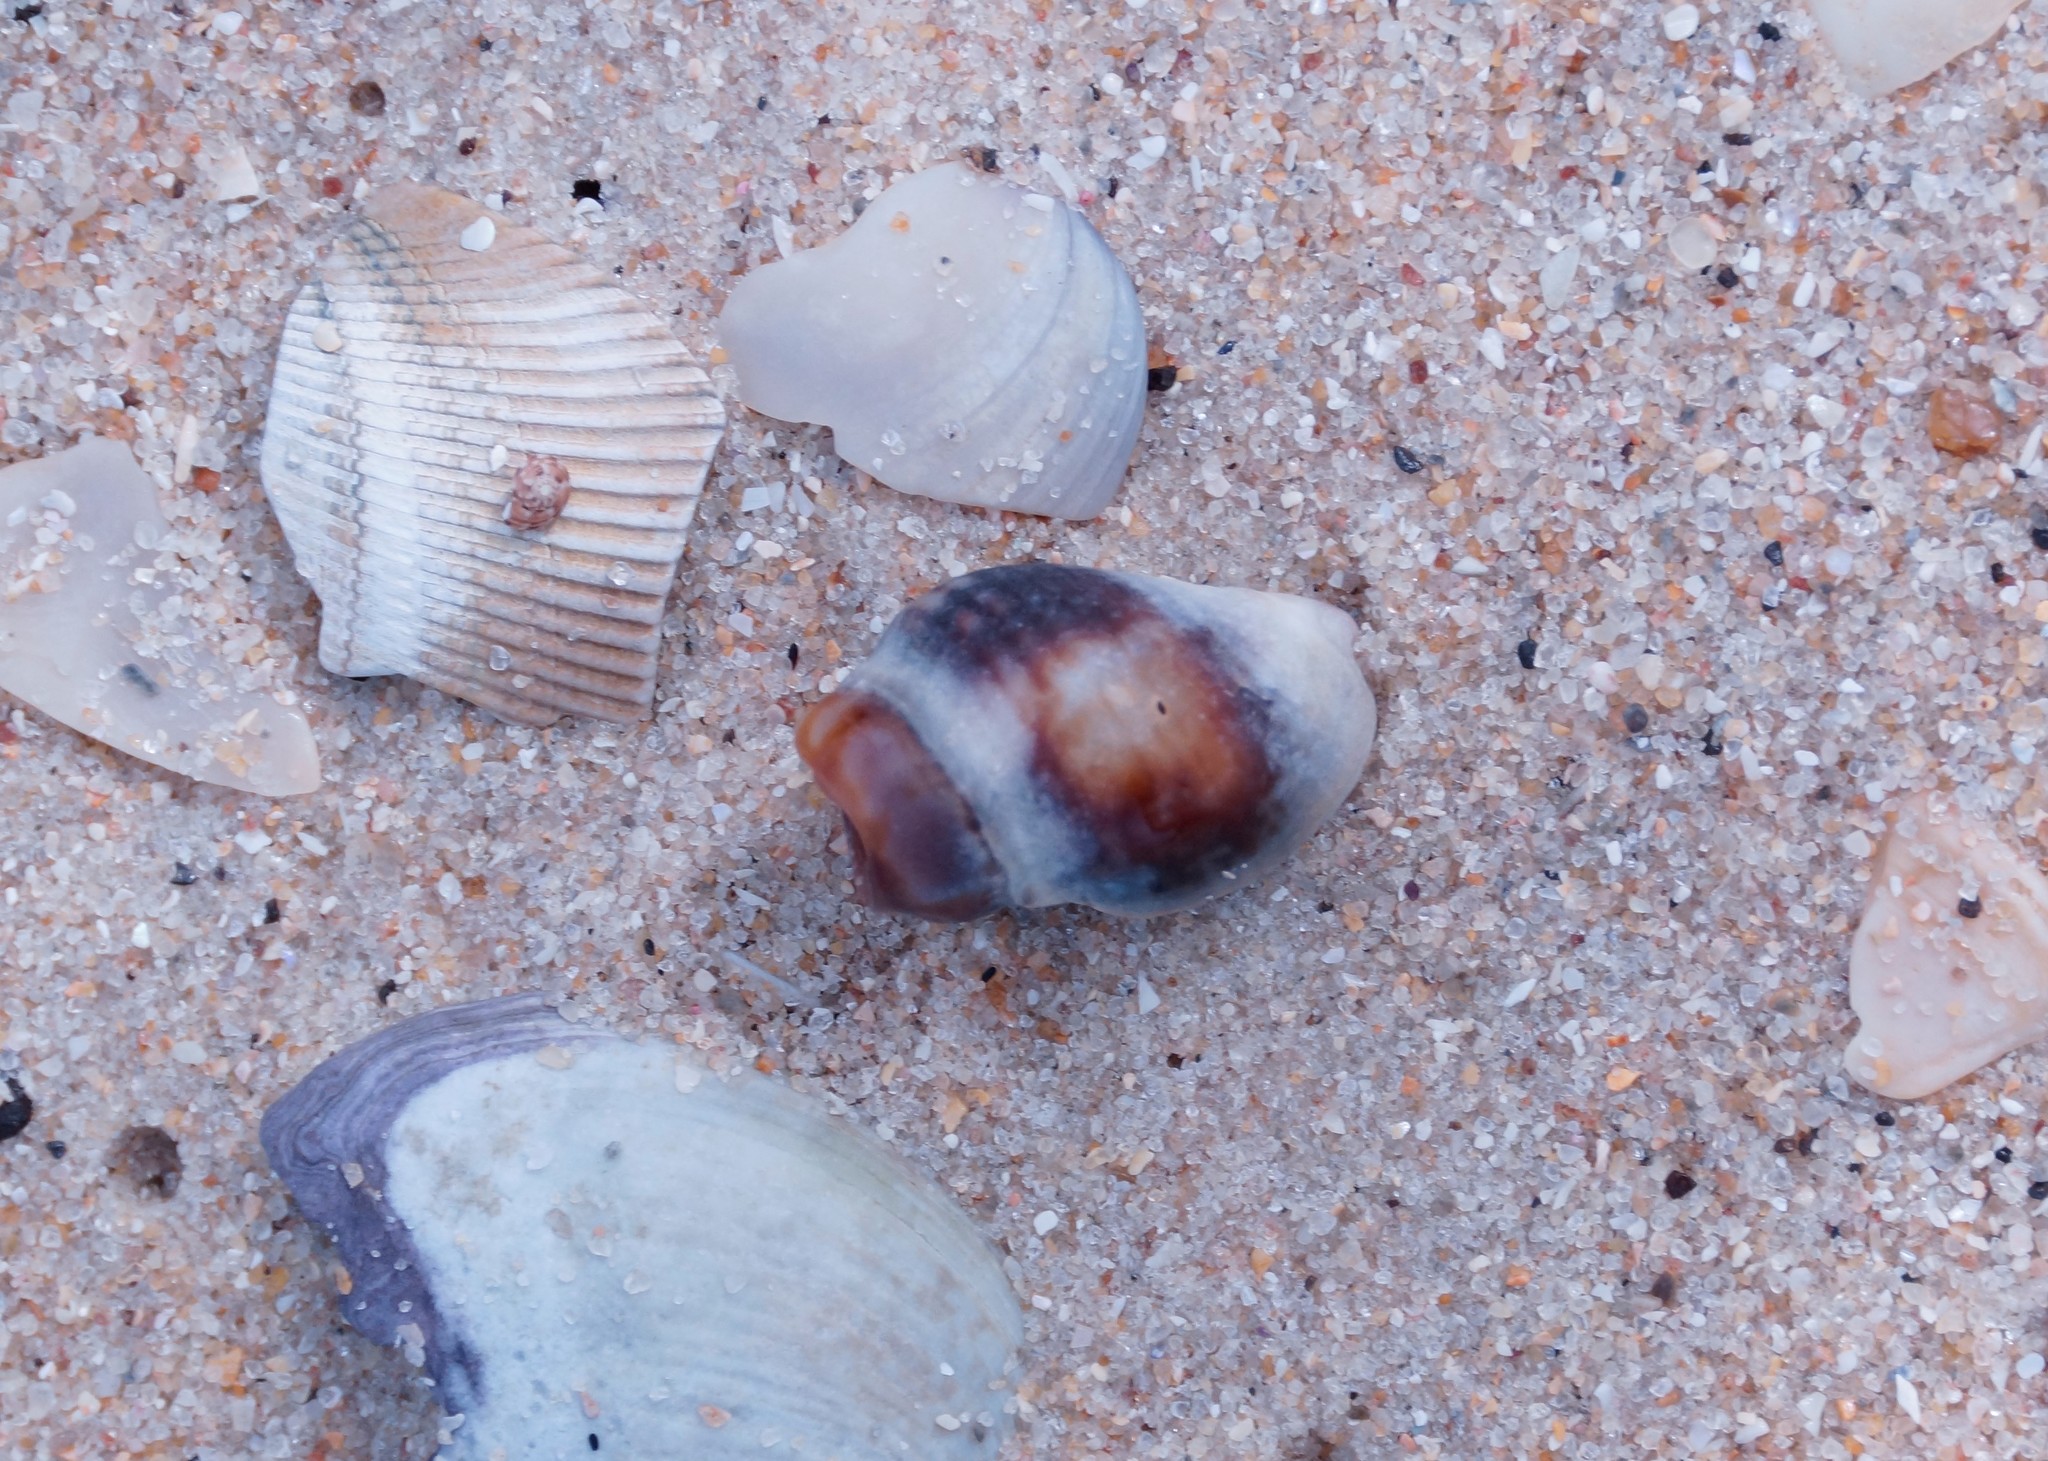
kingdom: Animalia
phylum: Mollusca
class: Gastropoda
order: Neogastropoda
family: Cominellidae
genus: Cominella
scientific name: Cominella lineolata
